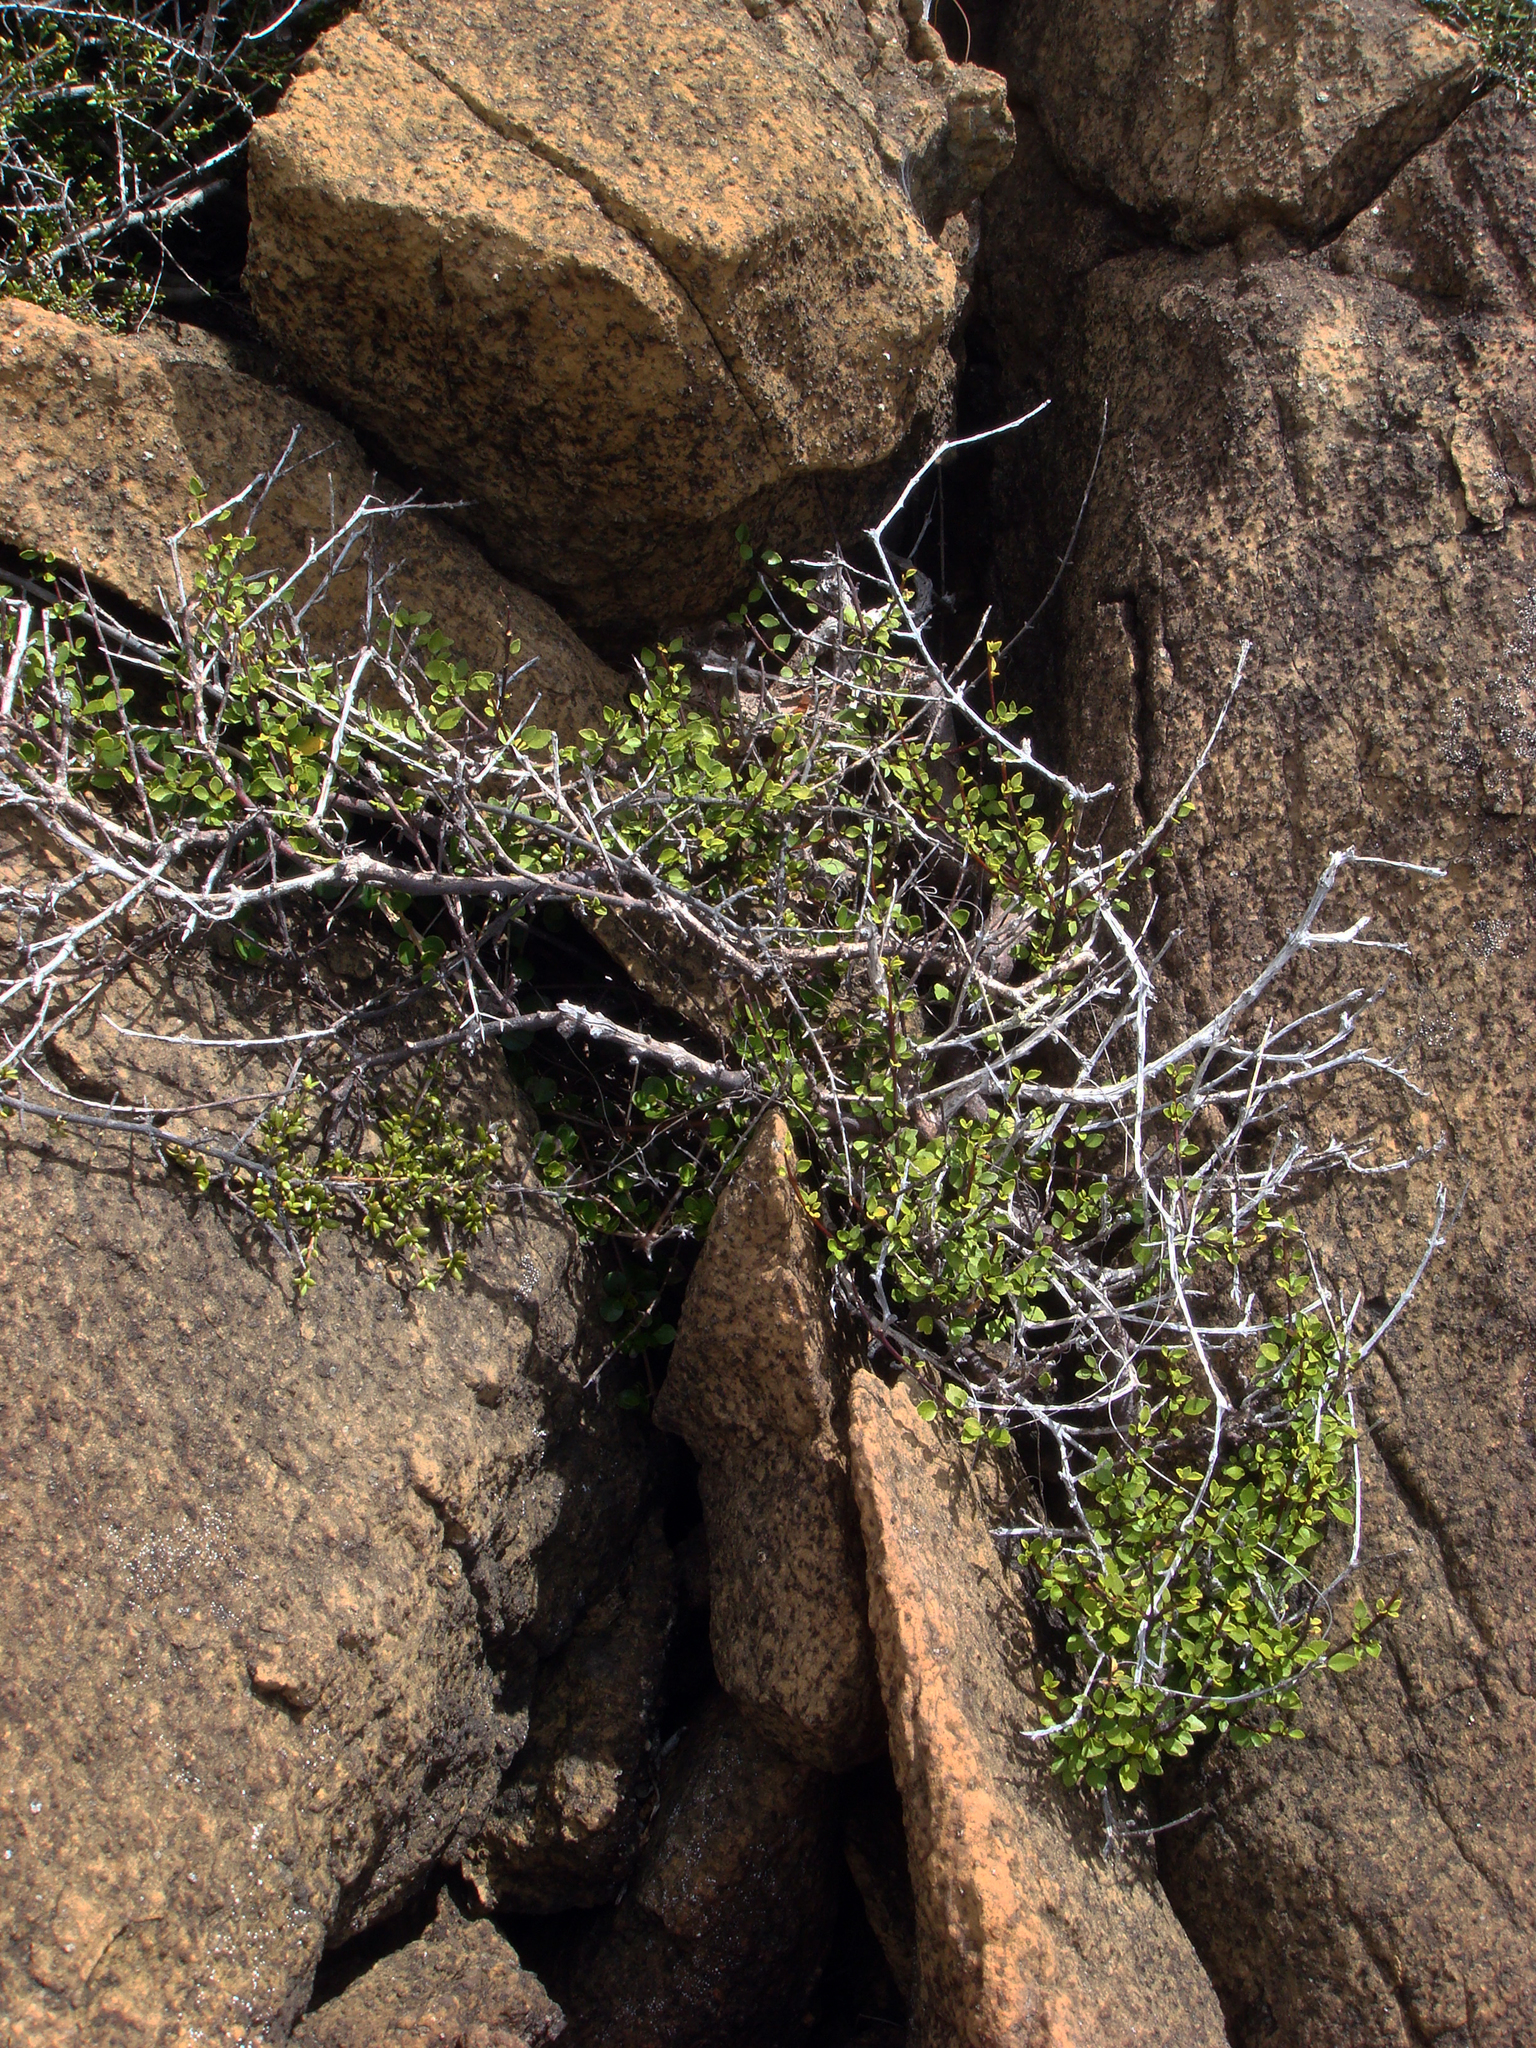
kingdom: Plantae
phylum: Tracheophyta
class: Magnoliopsida
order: Sapindales
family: Rutaceae
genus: Melicope
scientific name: Melicope simplex
